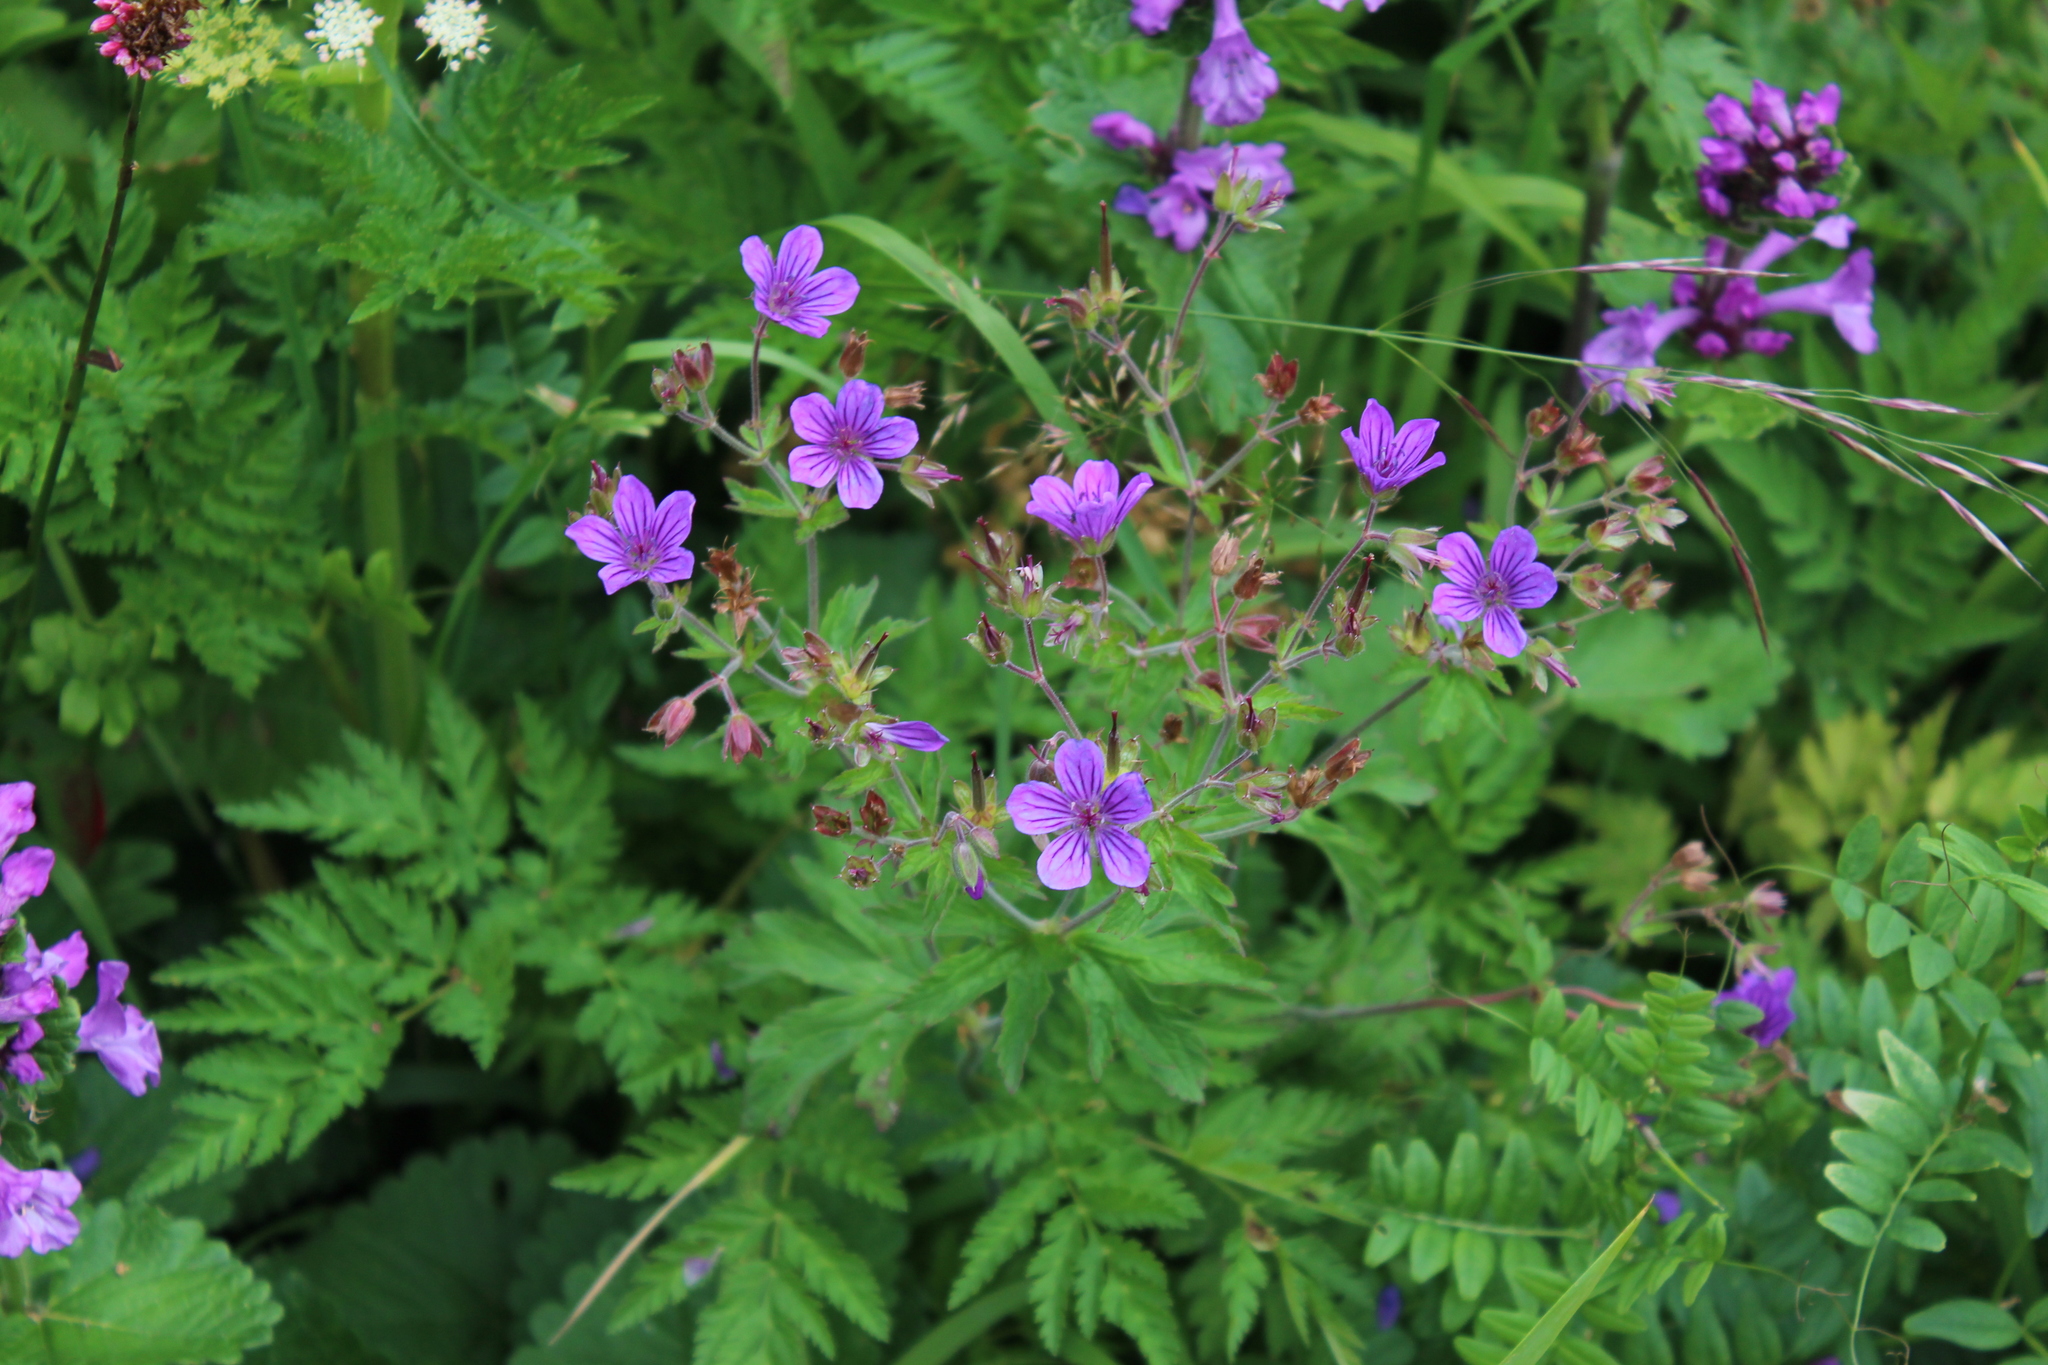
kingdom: Plantae
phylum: Tracheophyta
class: Magnoliopsida
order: Geraniales
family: Geraniaceae
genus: Geranium
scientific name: Geranium sylvaticum
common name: Wood crane's-bill
